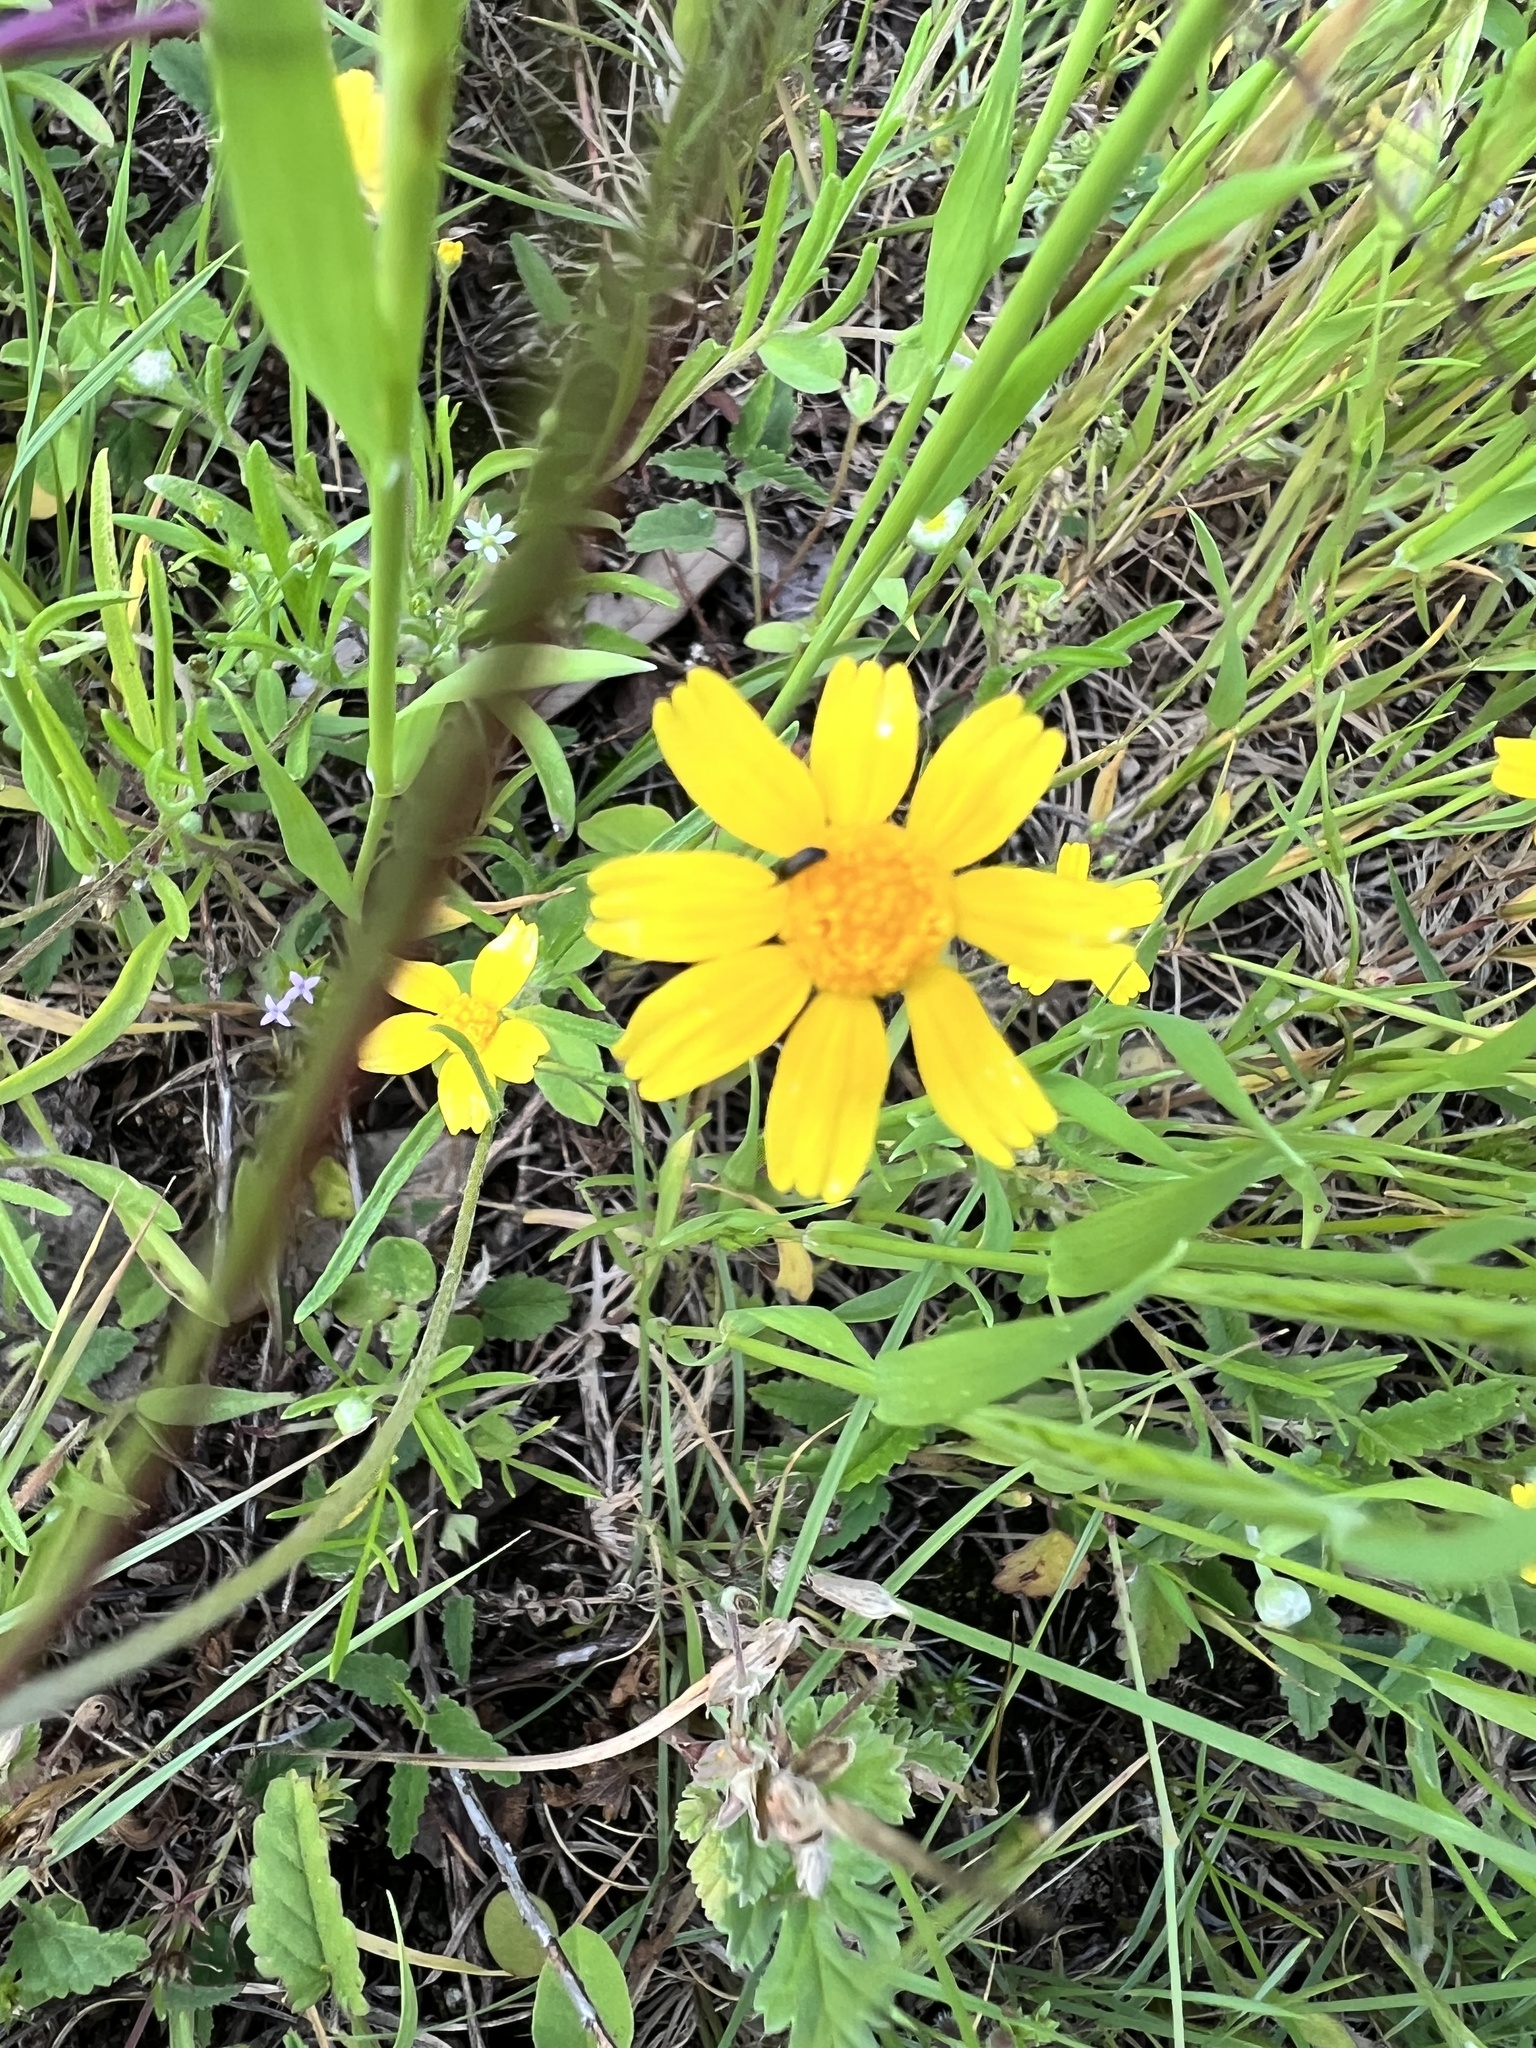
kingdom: Plantae
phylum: Tracheophyta
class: Magnoliopsida
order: Asterales
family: Asteraceae
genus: Tetraneuris
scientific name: Tetraneuris linearifolia
